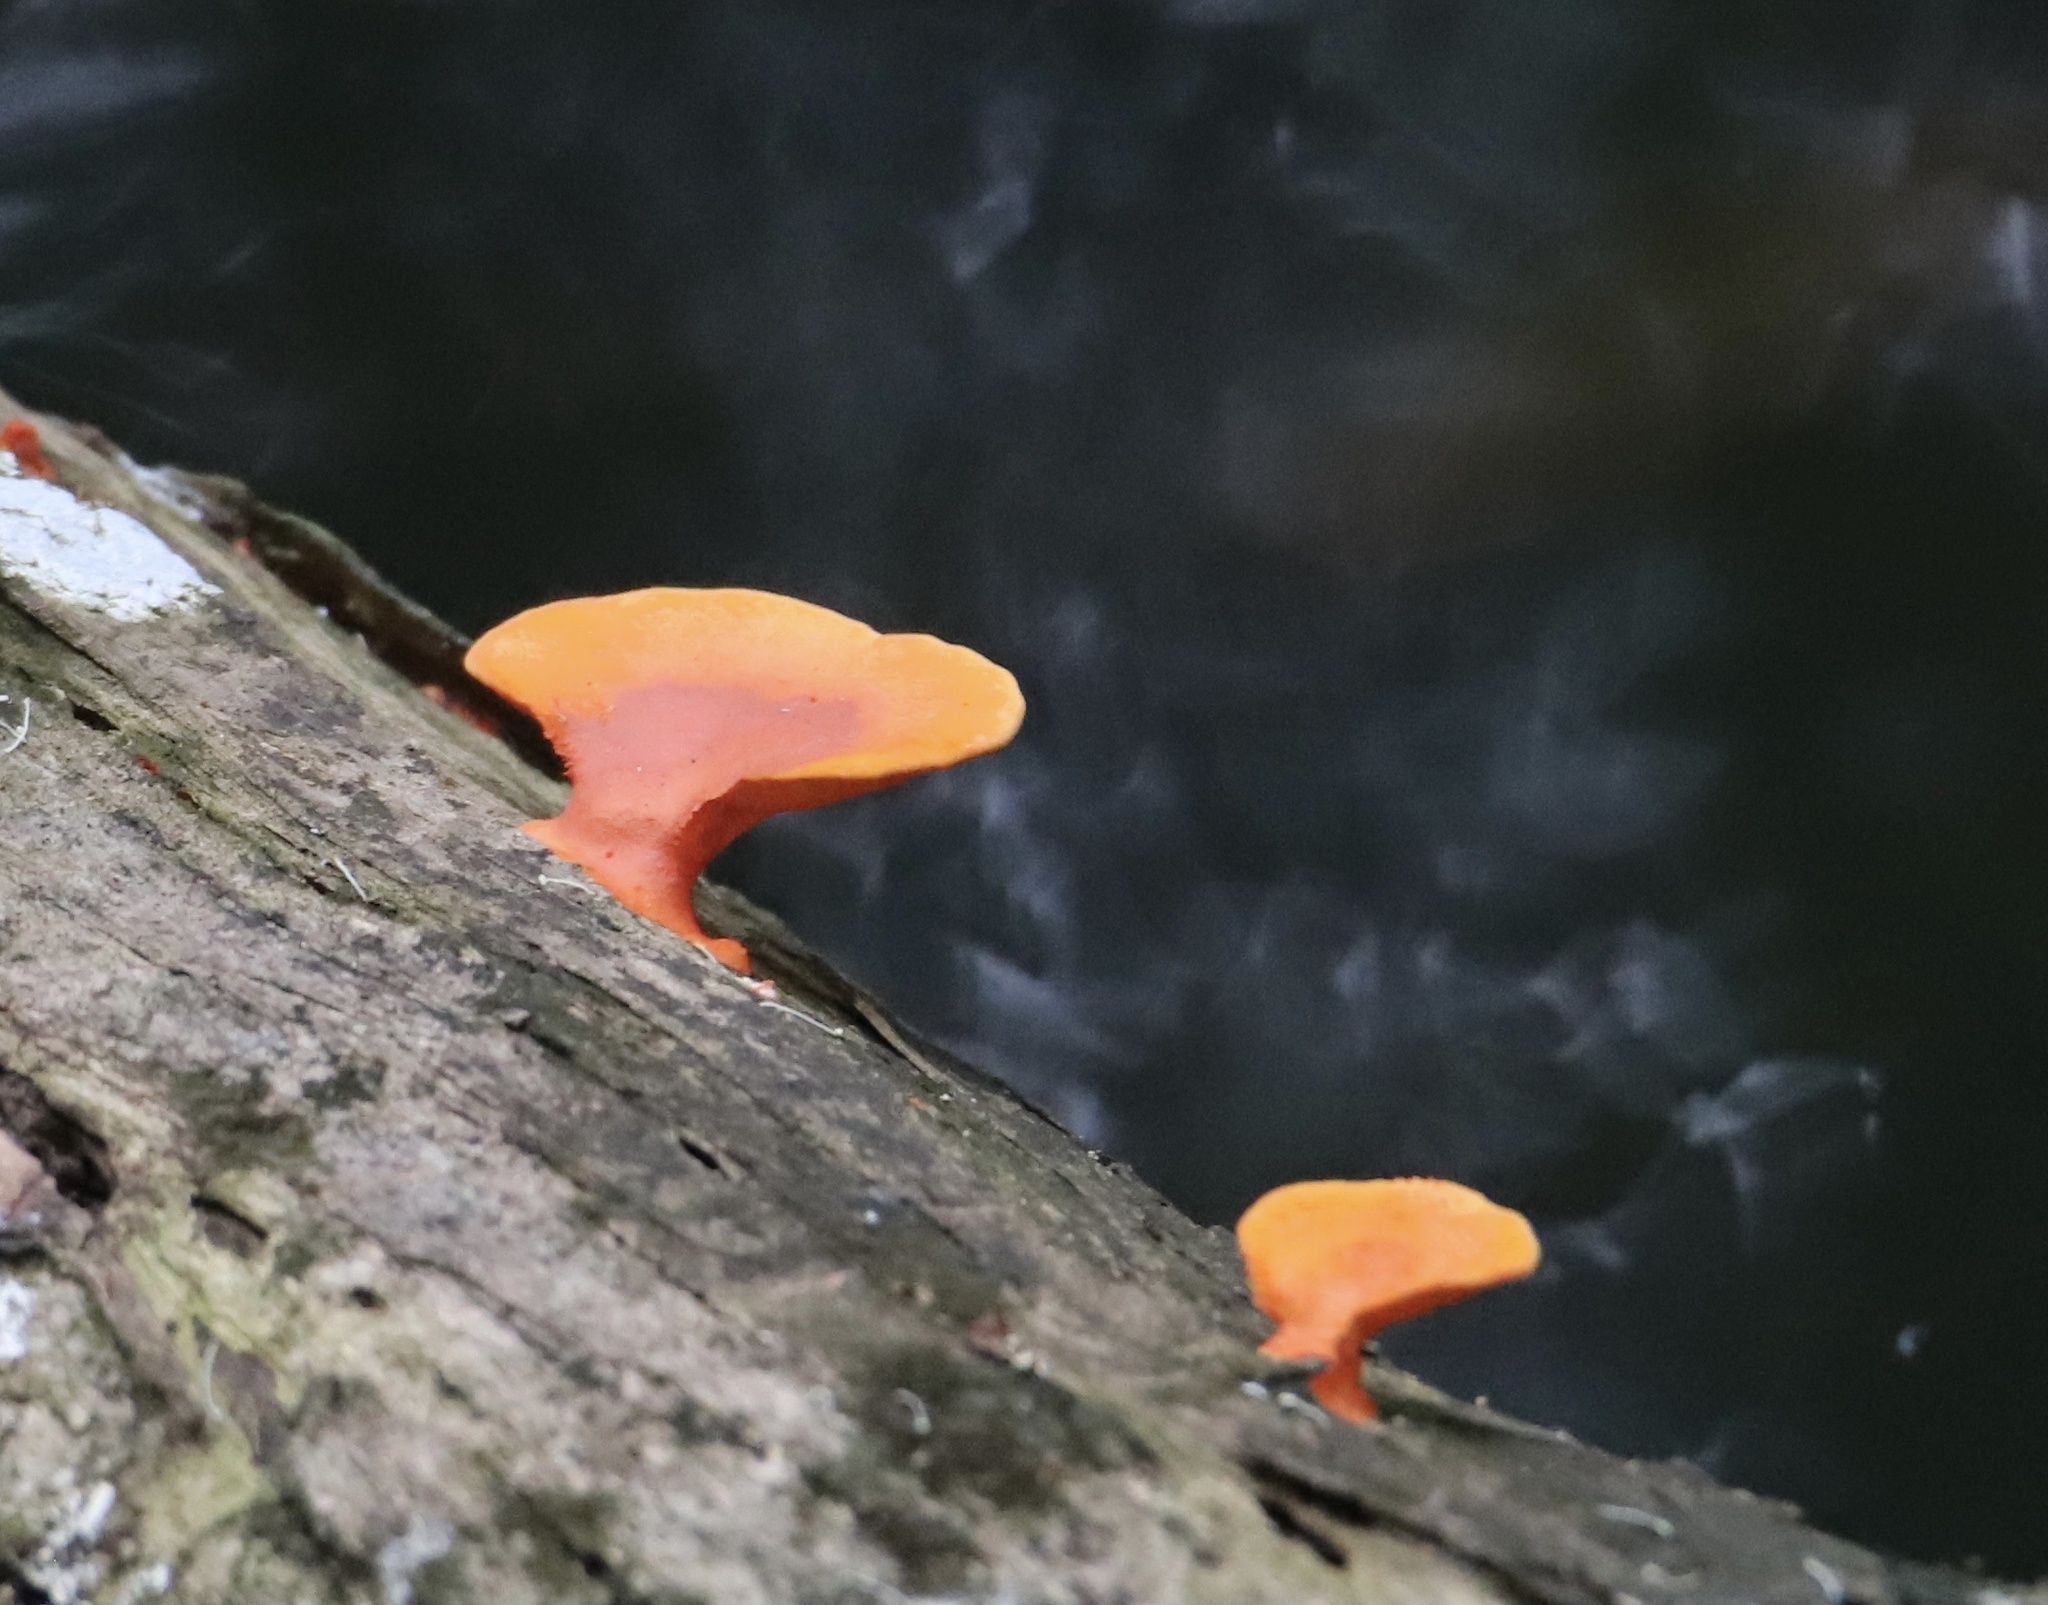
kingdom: Fungi
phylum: Basidiomycota
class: Agaricomycetes
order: Polyporales
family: Polyporaceae
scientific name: Polyporaceae
